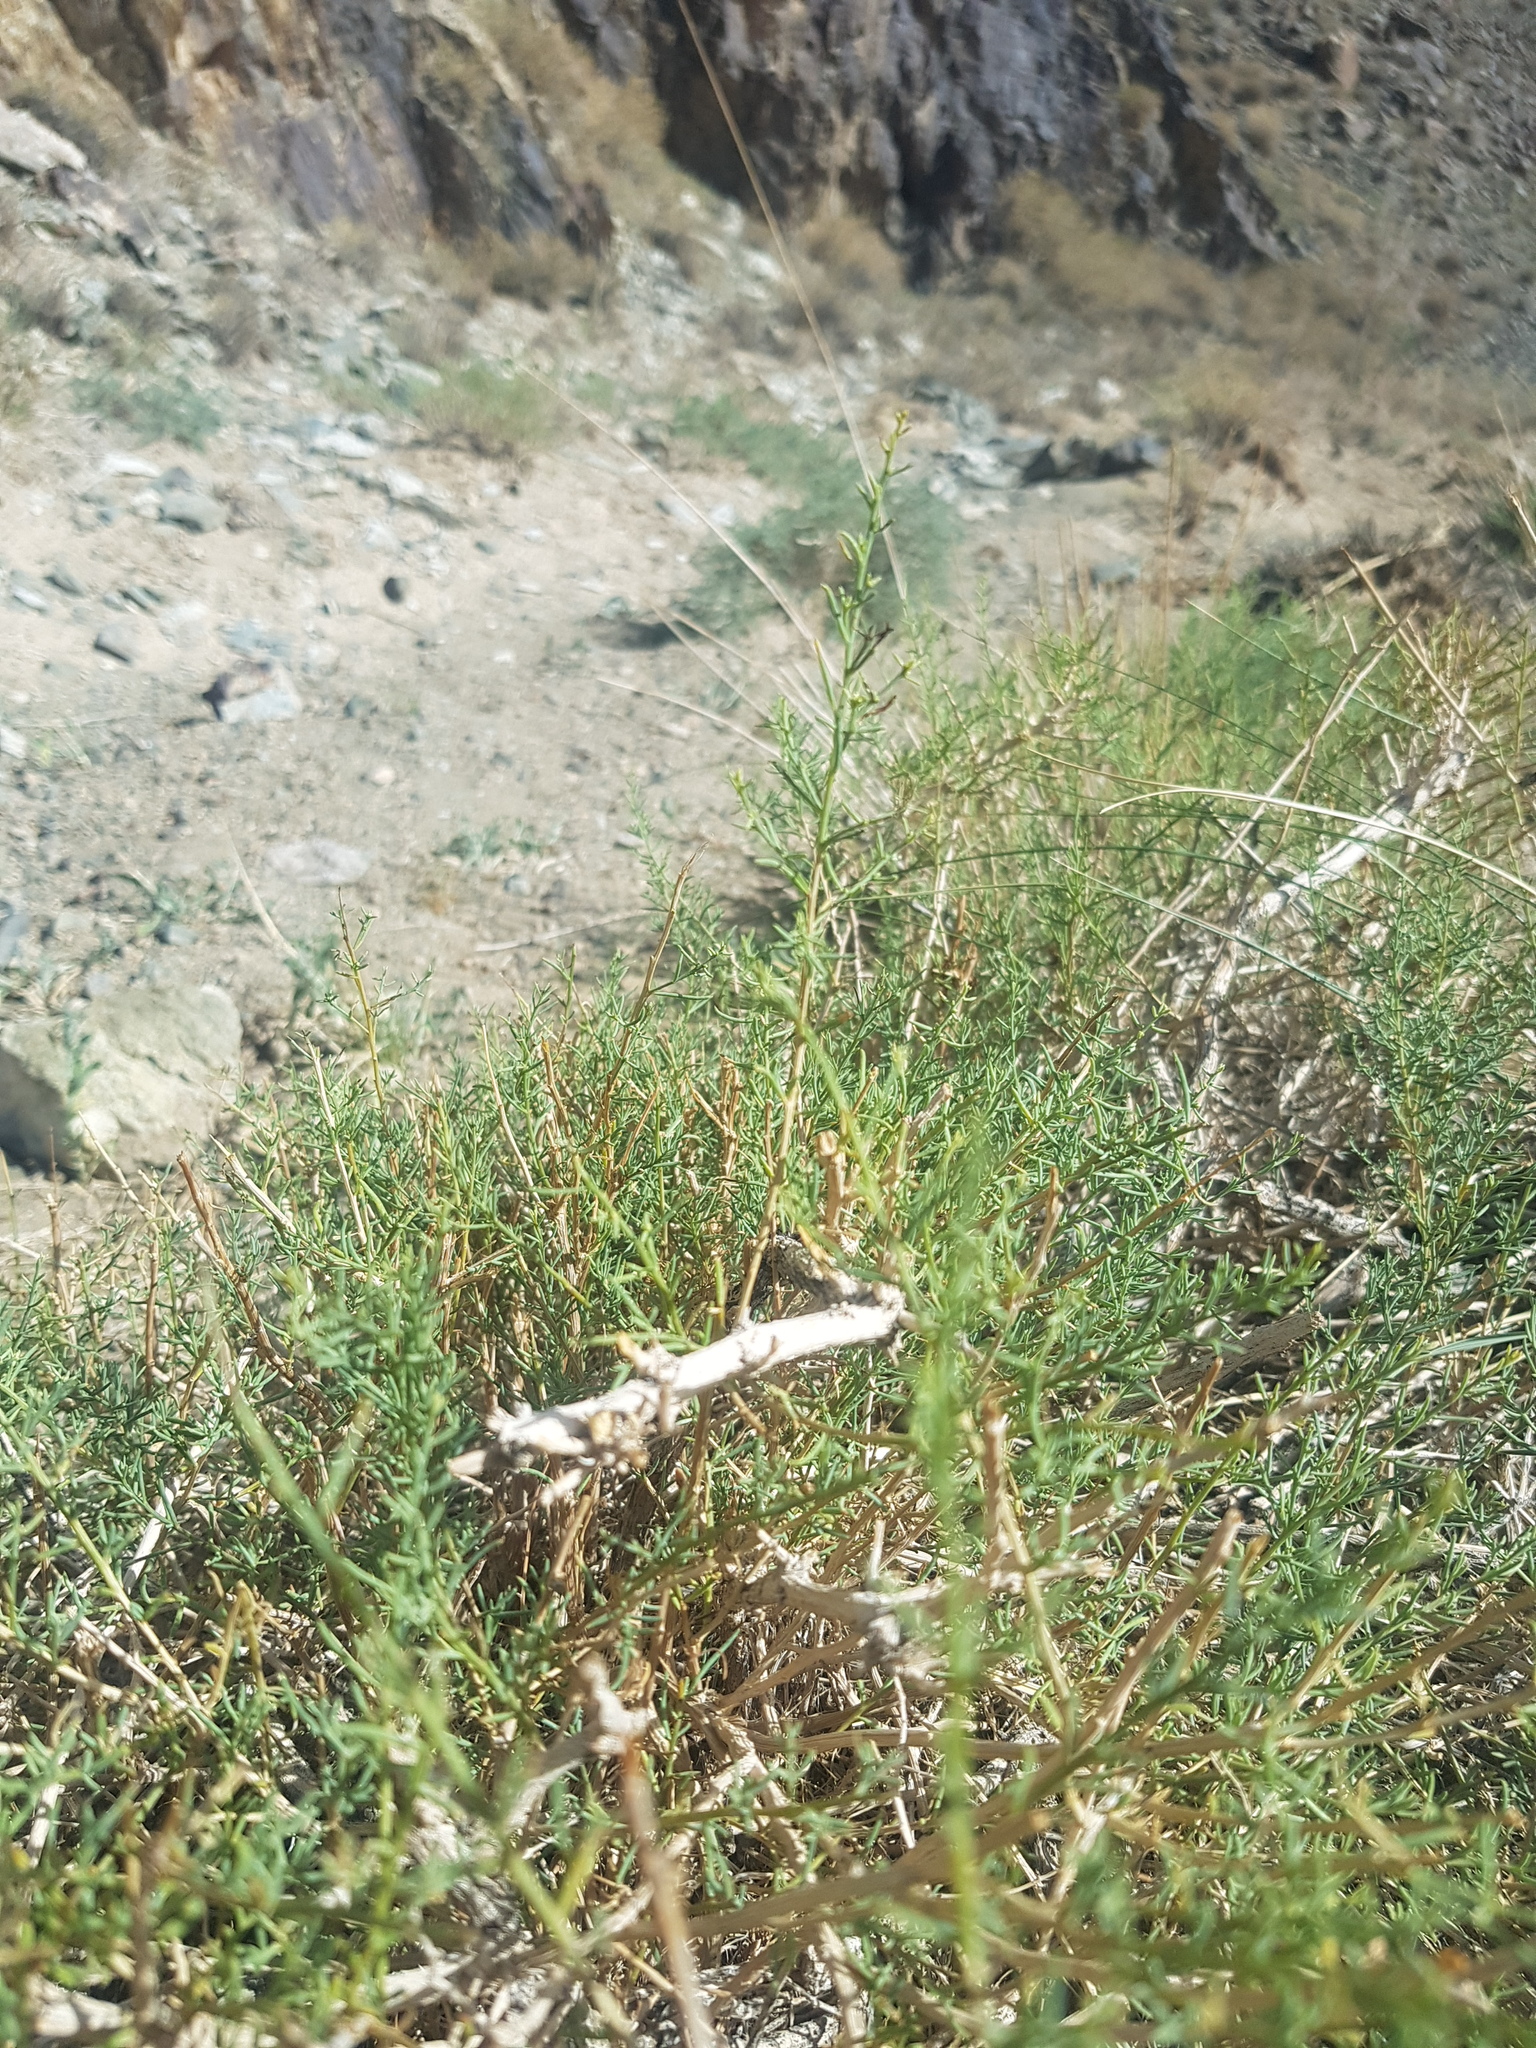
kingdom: Plantae
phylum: Tracheophyta
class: Magnoliopsida
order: Caryophyllales
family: Amaranthaceae
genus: Sympegma
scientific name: Sympegma regelii
